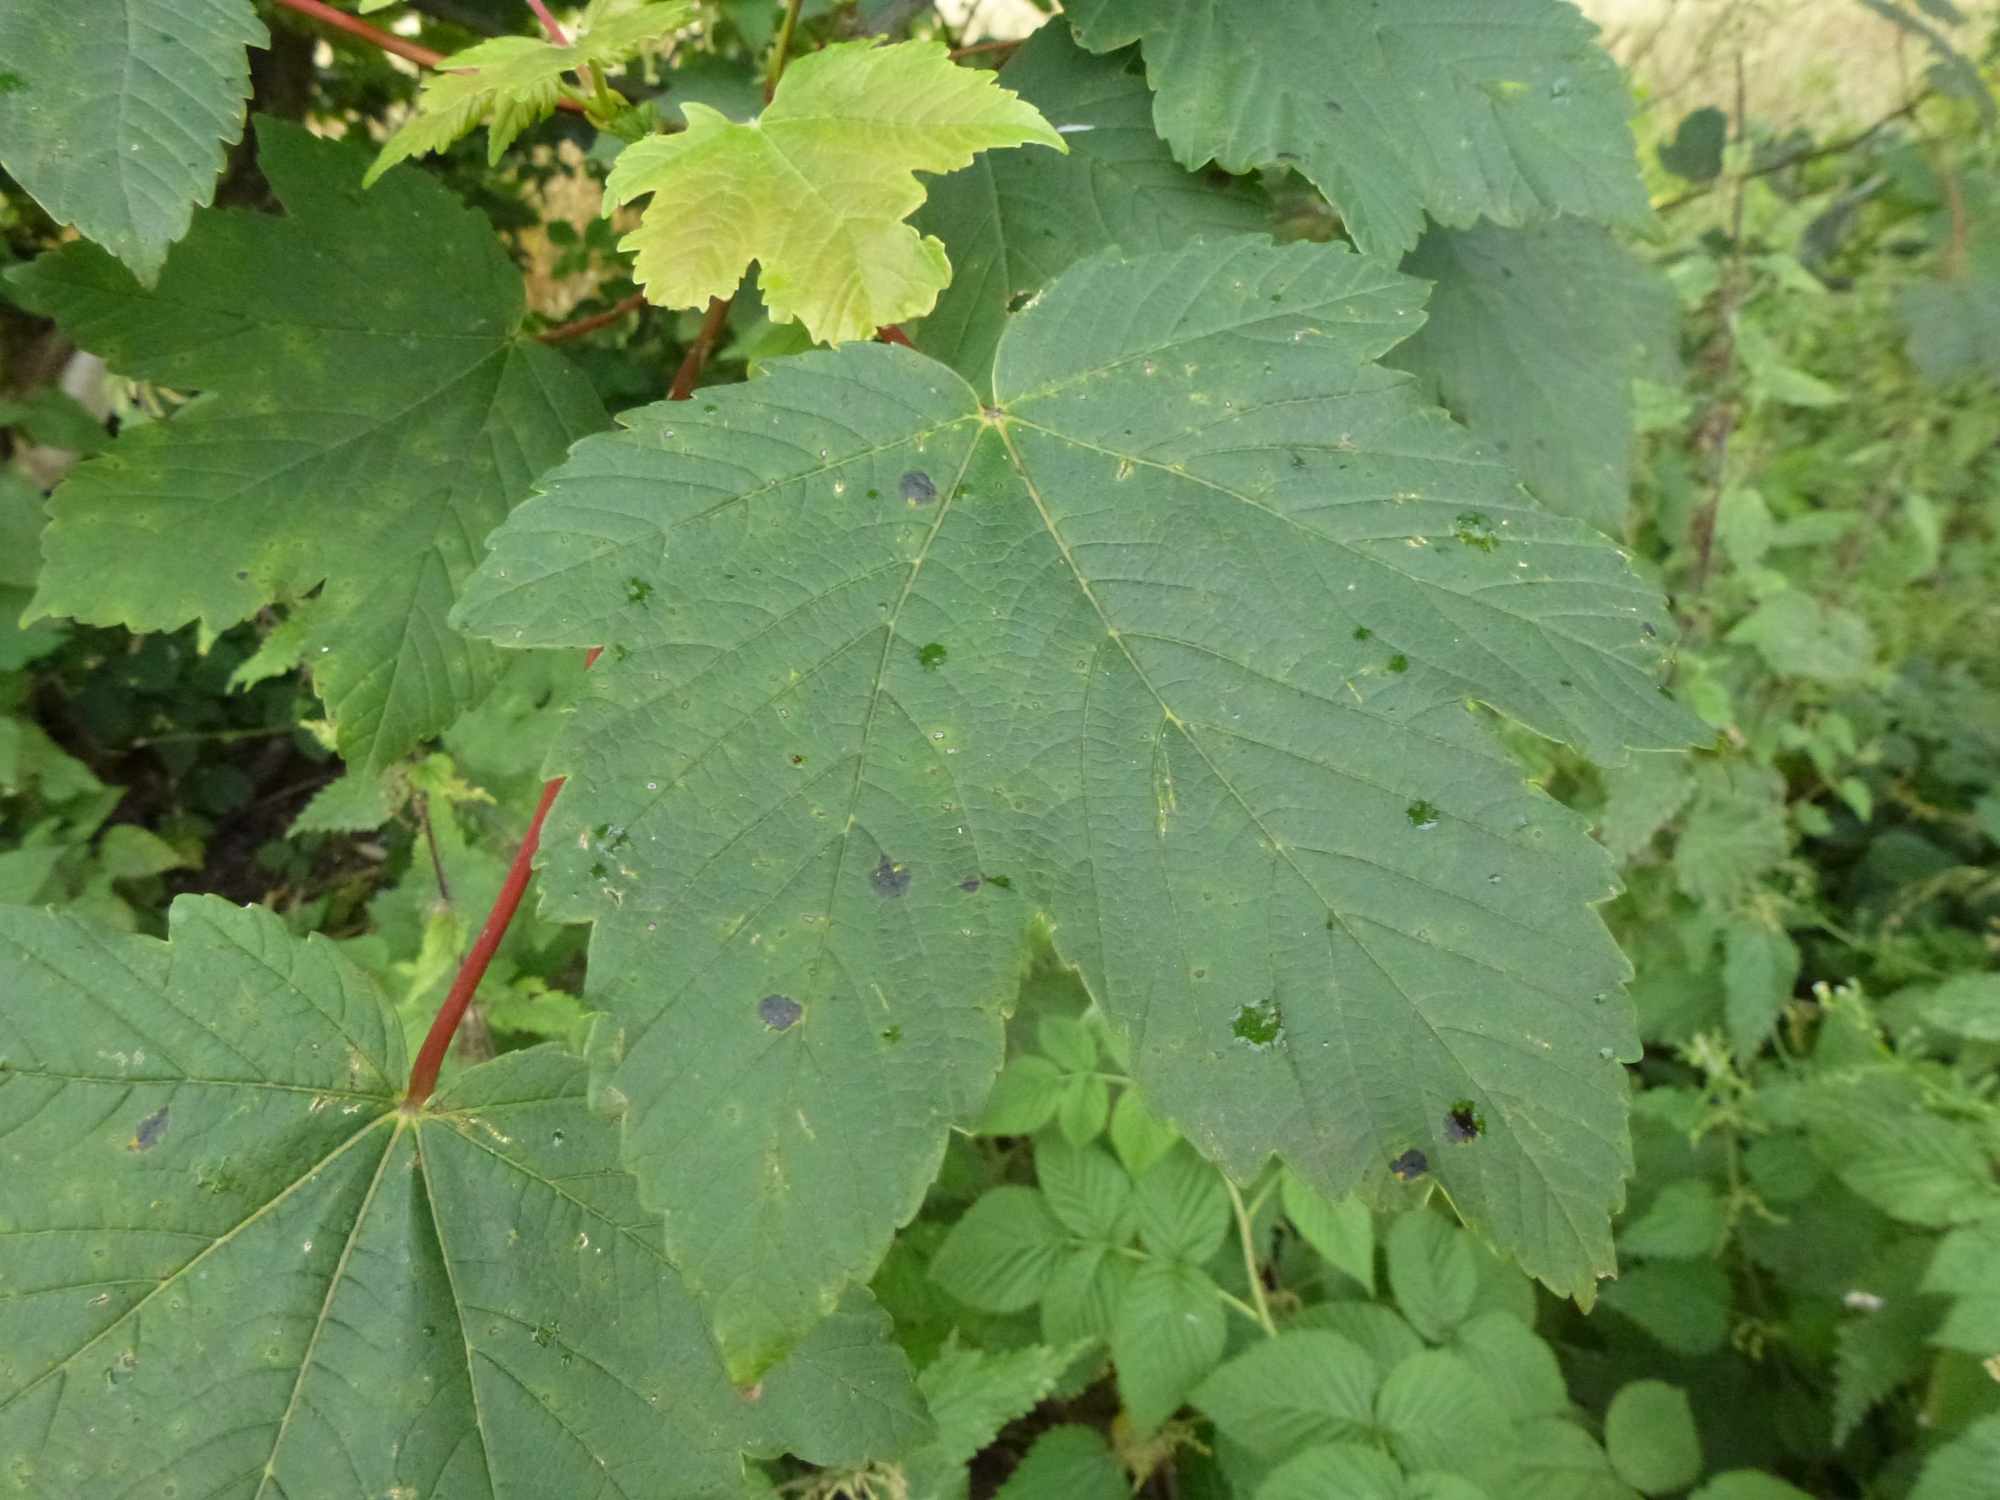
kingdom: Fungi
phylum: Ascomycota
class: Leotiomycetes
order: Rhytismatales
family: Rhytismataceae
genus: Rhytisma
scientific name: Rhytisma acerinum
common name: European tar spot
